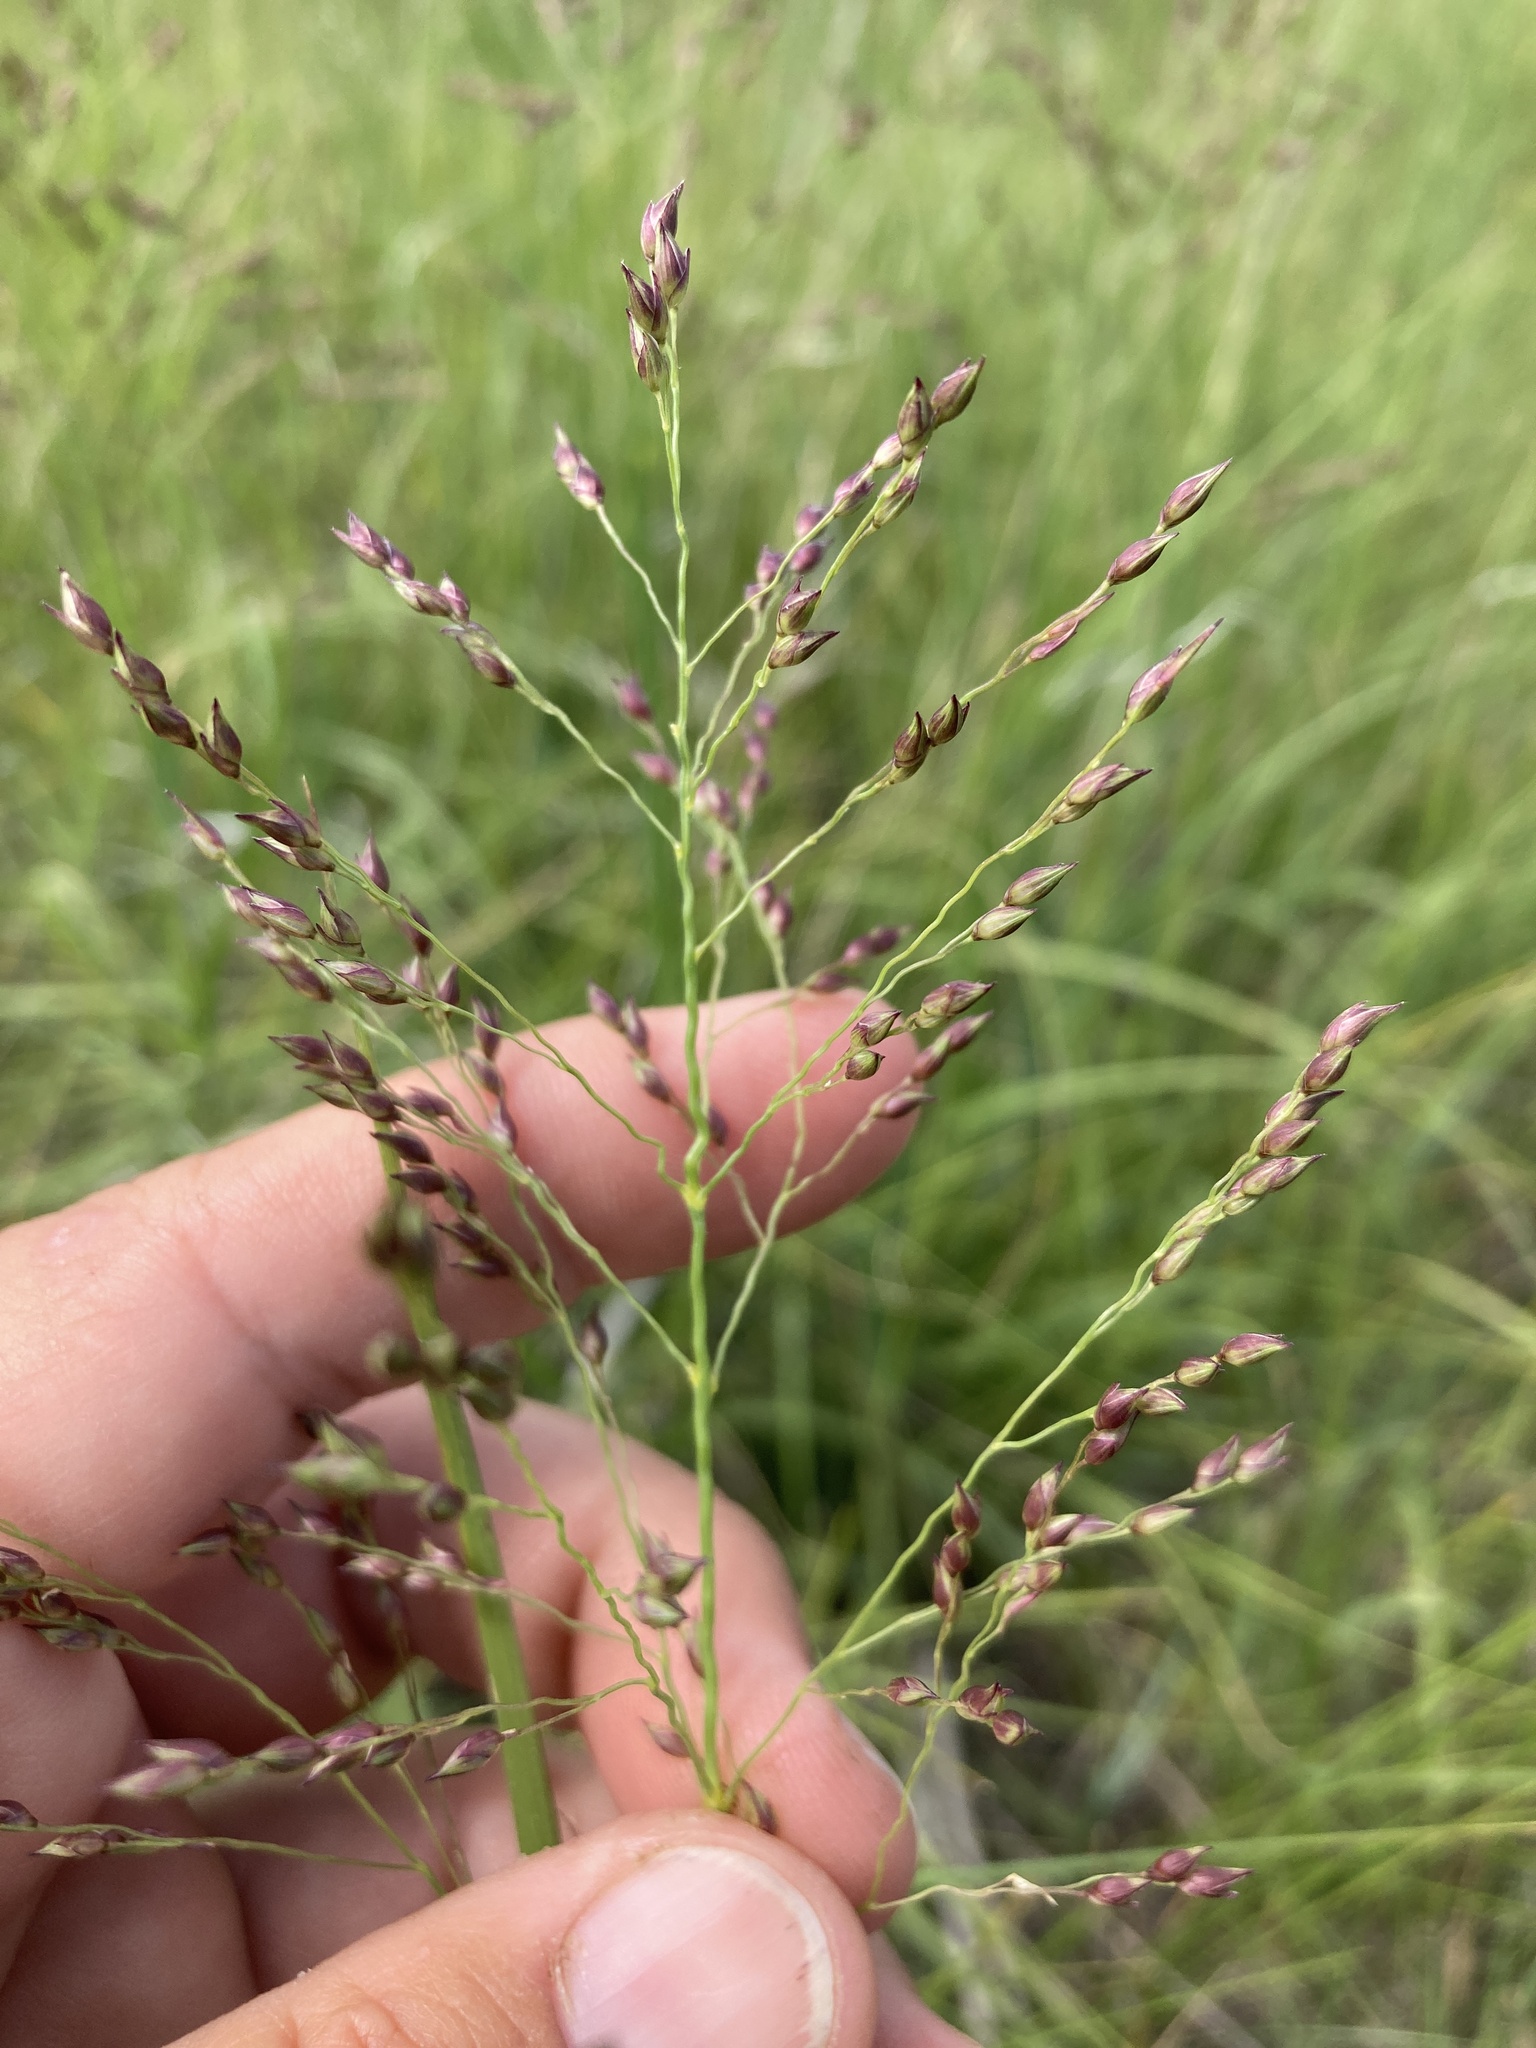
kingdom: Plantae
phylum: Tracheophyta
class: Liliopsida
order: Poales
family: Poaceae
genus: Panicum
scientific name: Panicum virgatum
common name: Switchgrass
